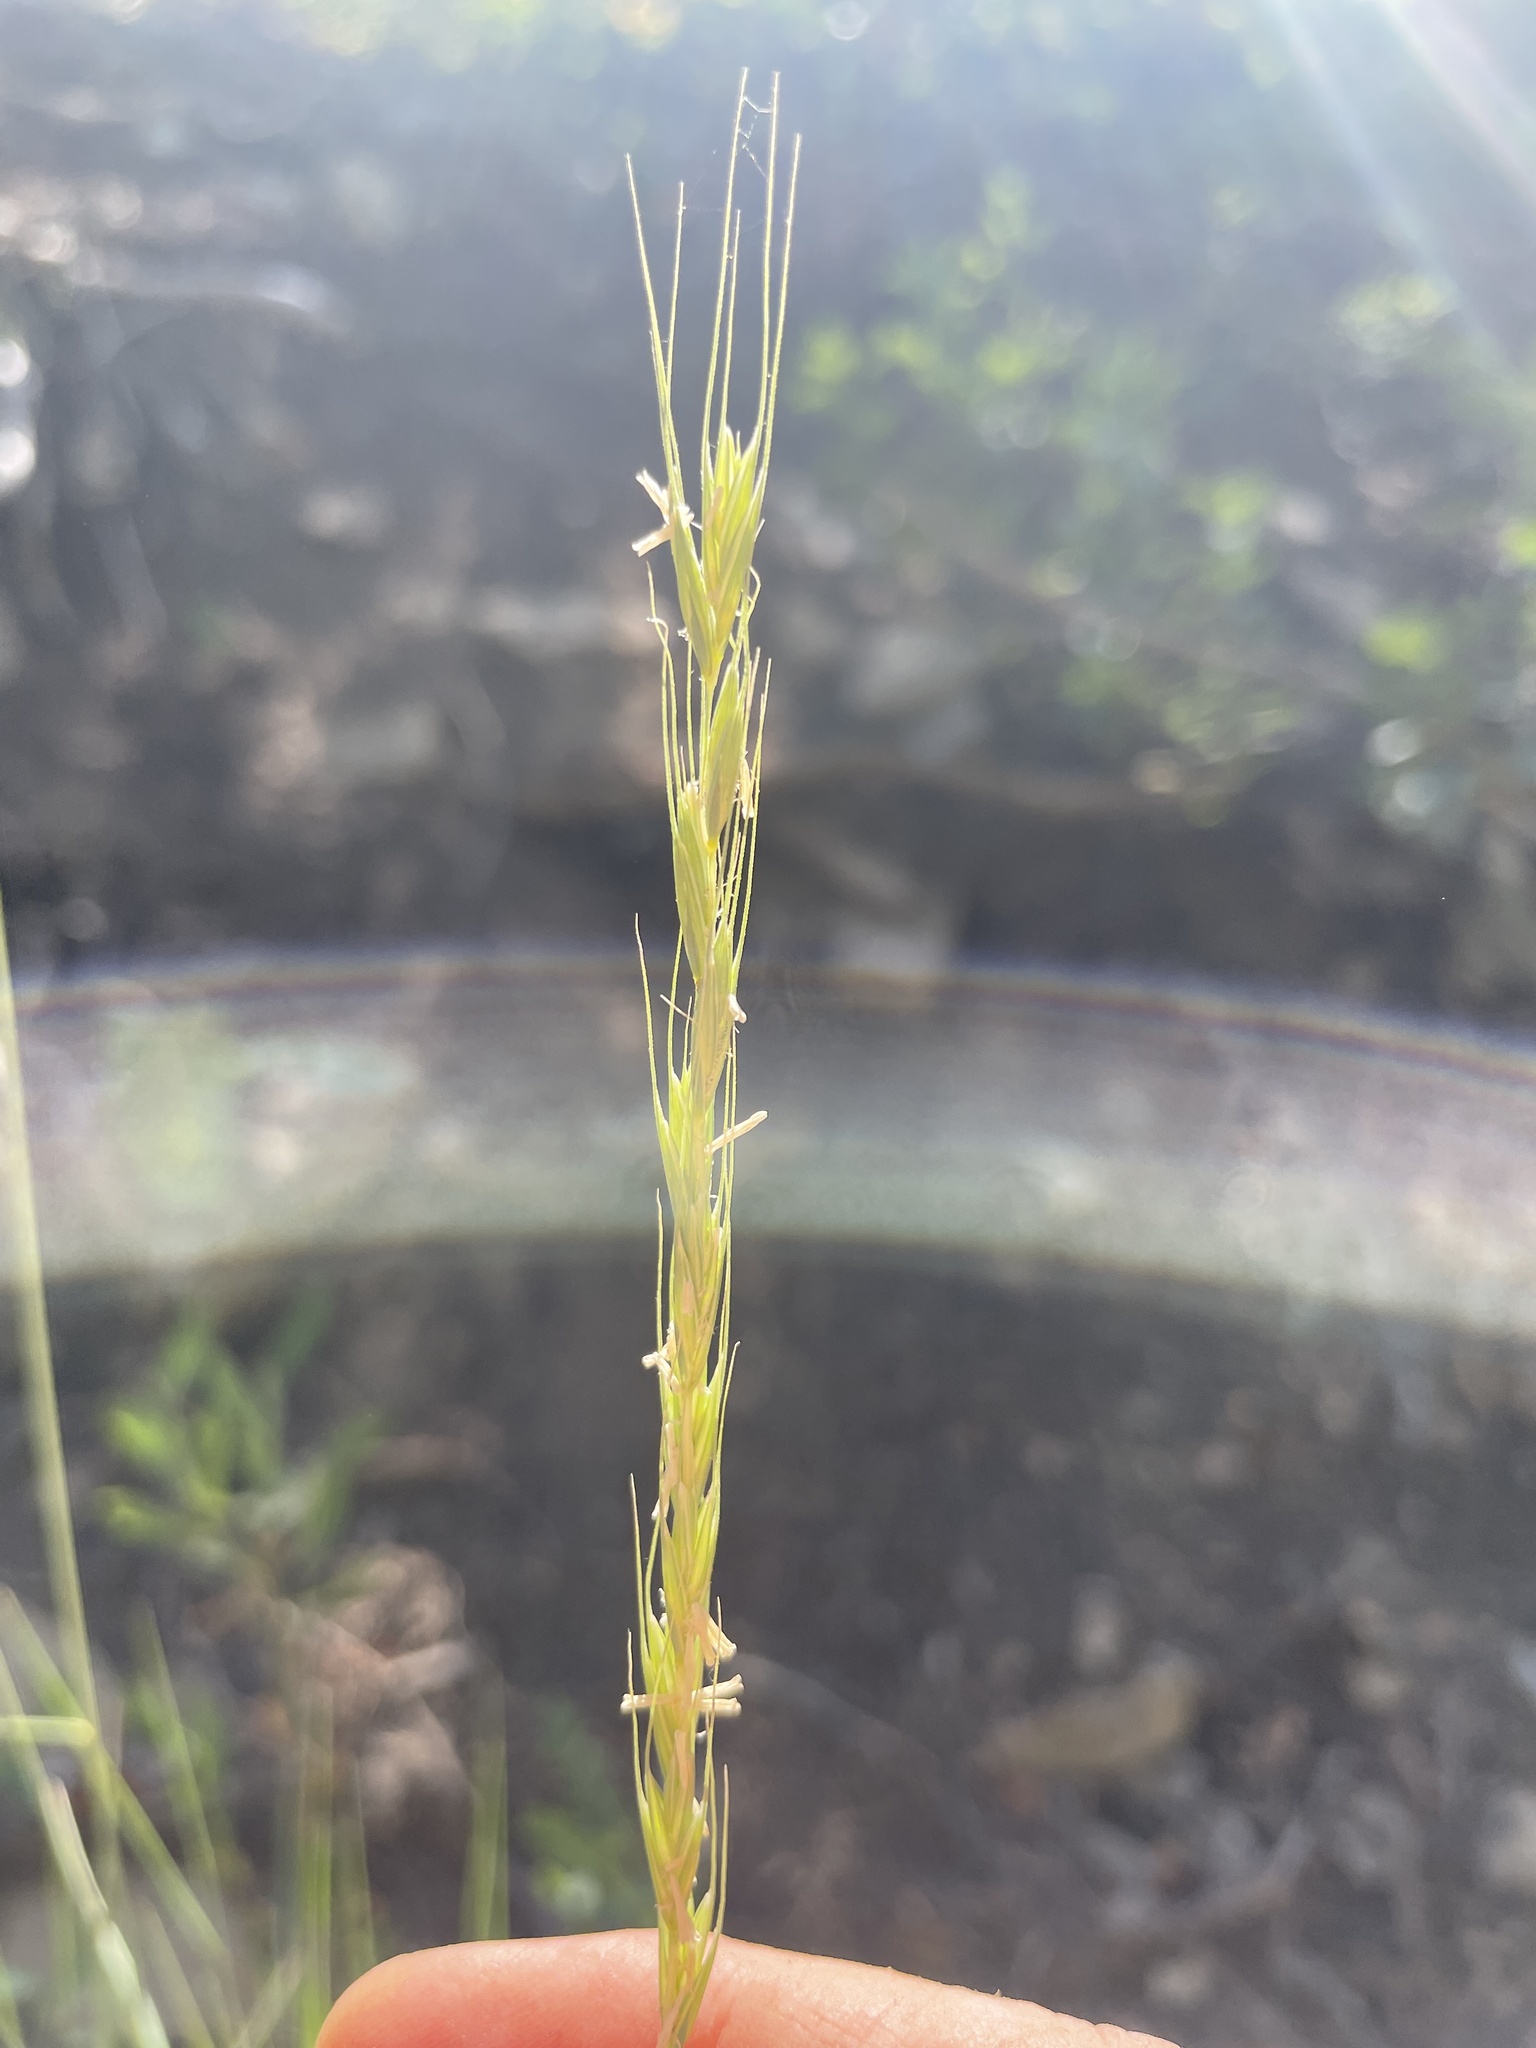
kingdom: Plantae
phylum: Tracheophyta
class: Liliopsida
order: Poales
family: Poaceae
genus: Pseudoroegneria
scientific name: Pseudoroegneria spicata
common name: Bluebunch wheatgrass
